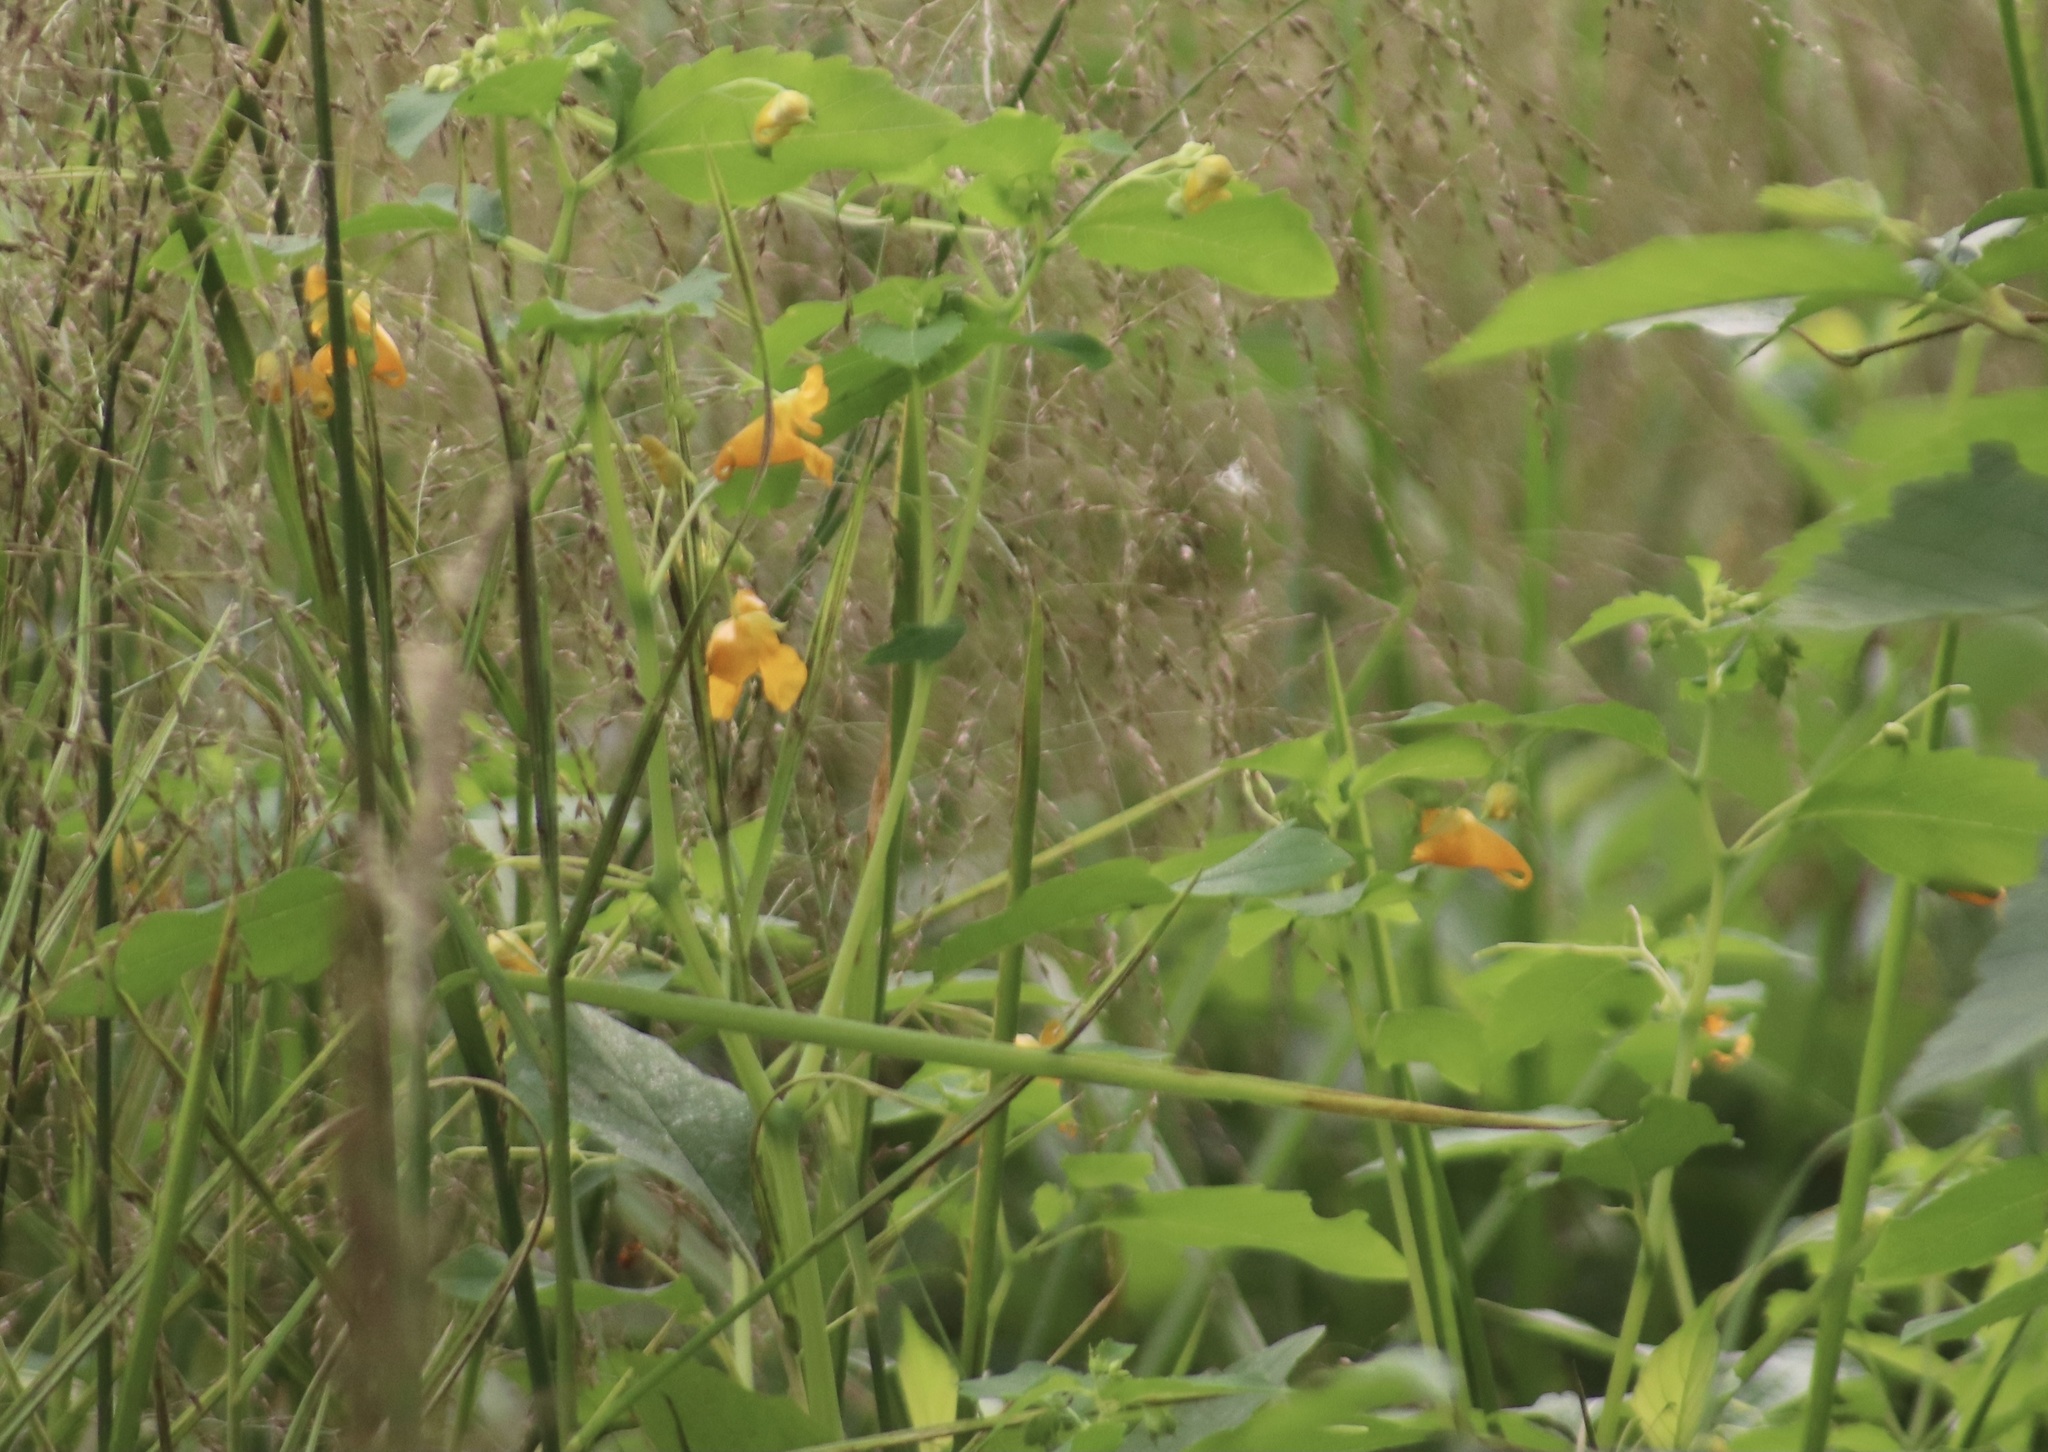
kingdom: Plantae
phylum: Tracheophyta
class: Magnoliopsida
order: Ericales
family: Balsaminaceae
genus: Impatiens
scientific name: Impatiens capensis
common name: Orange balsam
